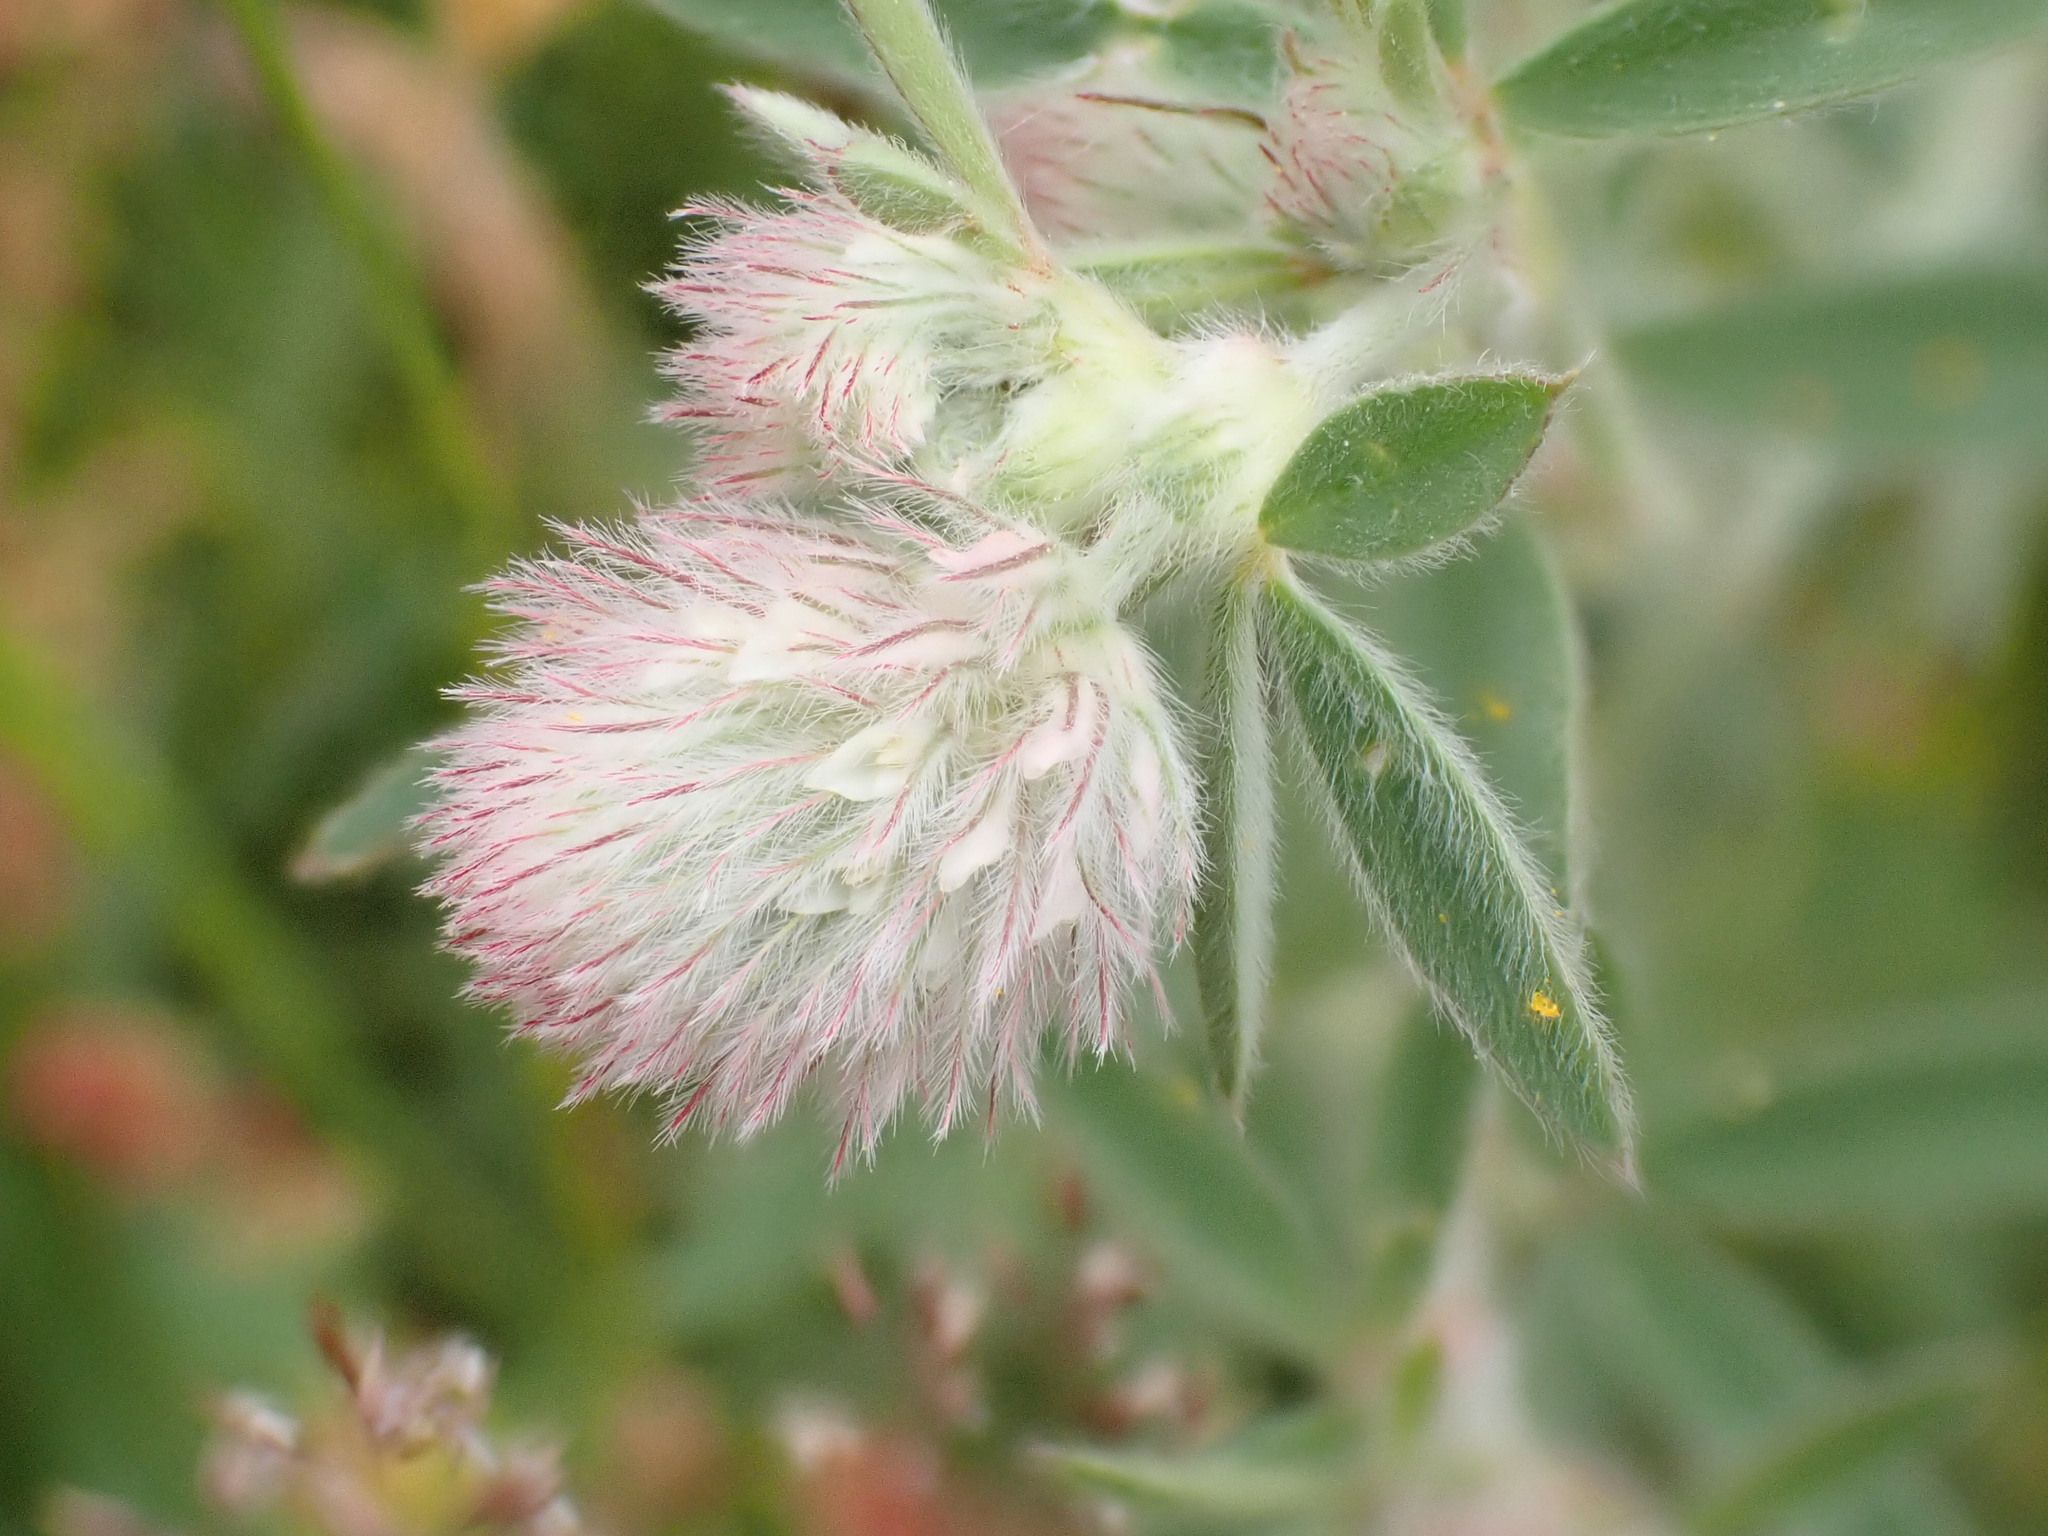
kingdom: Plantae
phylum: Tracheophyta
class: Magnoliopsida
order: Fabales
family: Fabaceae
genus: Trifolium
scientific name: Trifolium arvense
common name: Hare's-foot clover
